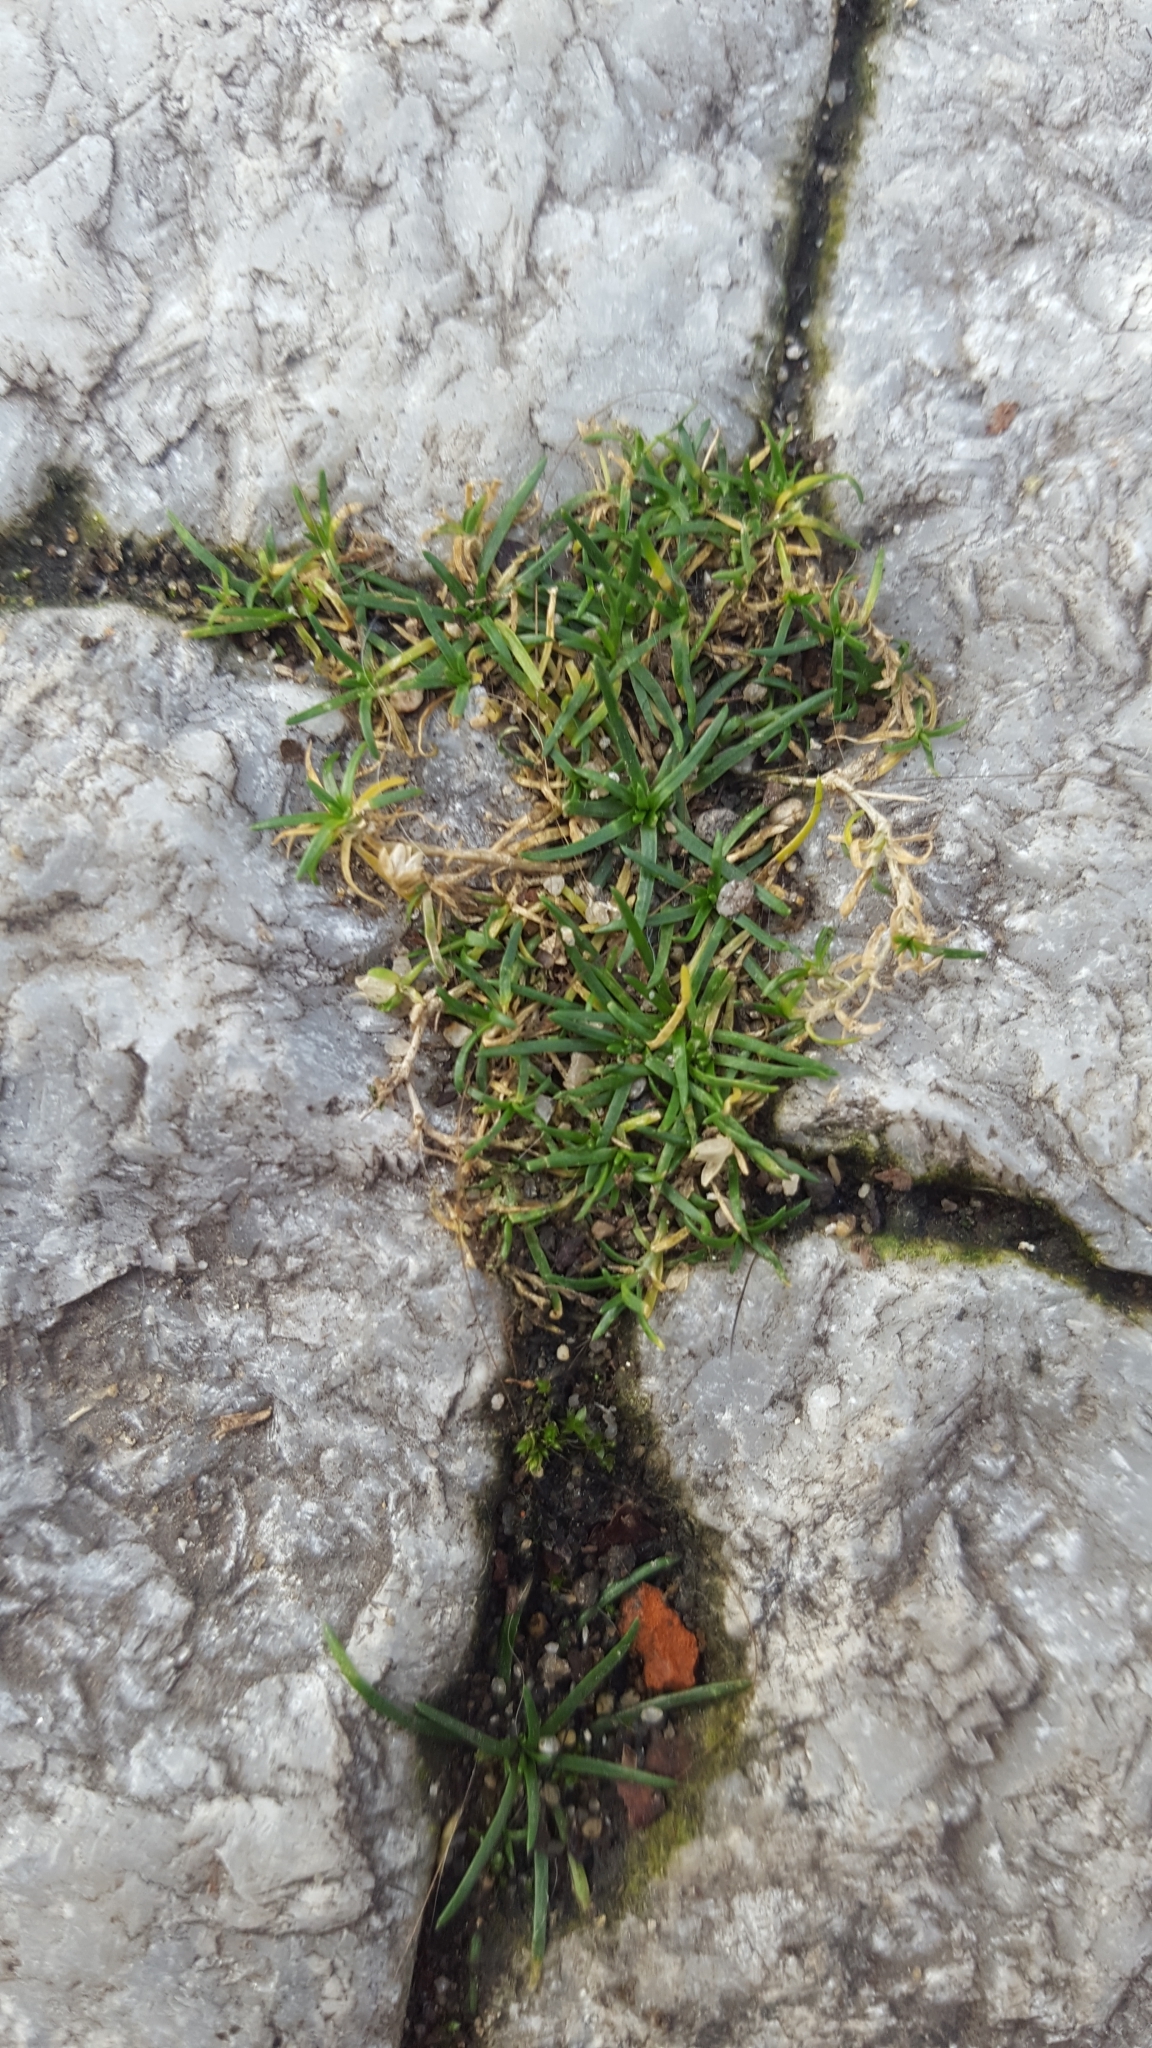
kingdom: Plantae
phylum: Tracheophyta
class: Magnoliopsida
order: Caryophyllales
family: Caryophyllaceae
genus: Sagina
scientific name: Sagina procumbens
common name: Procumbent pearlwort
